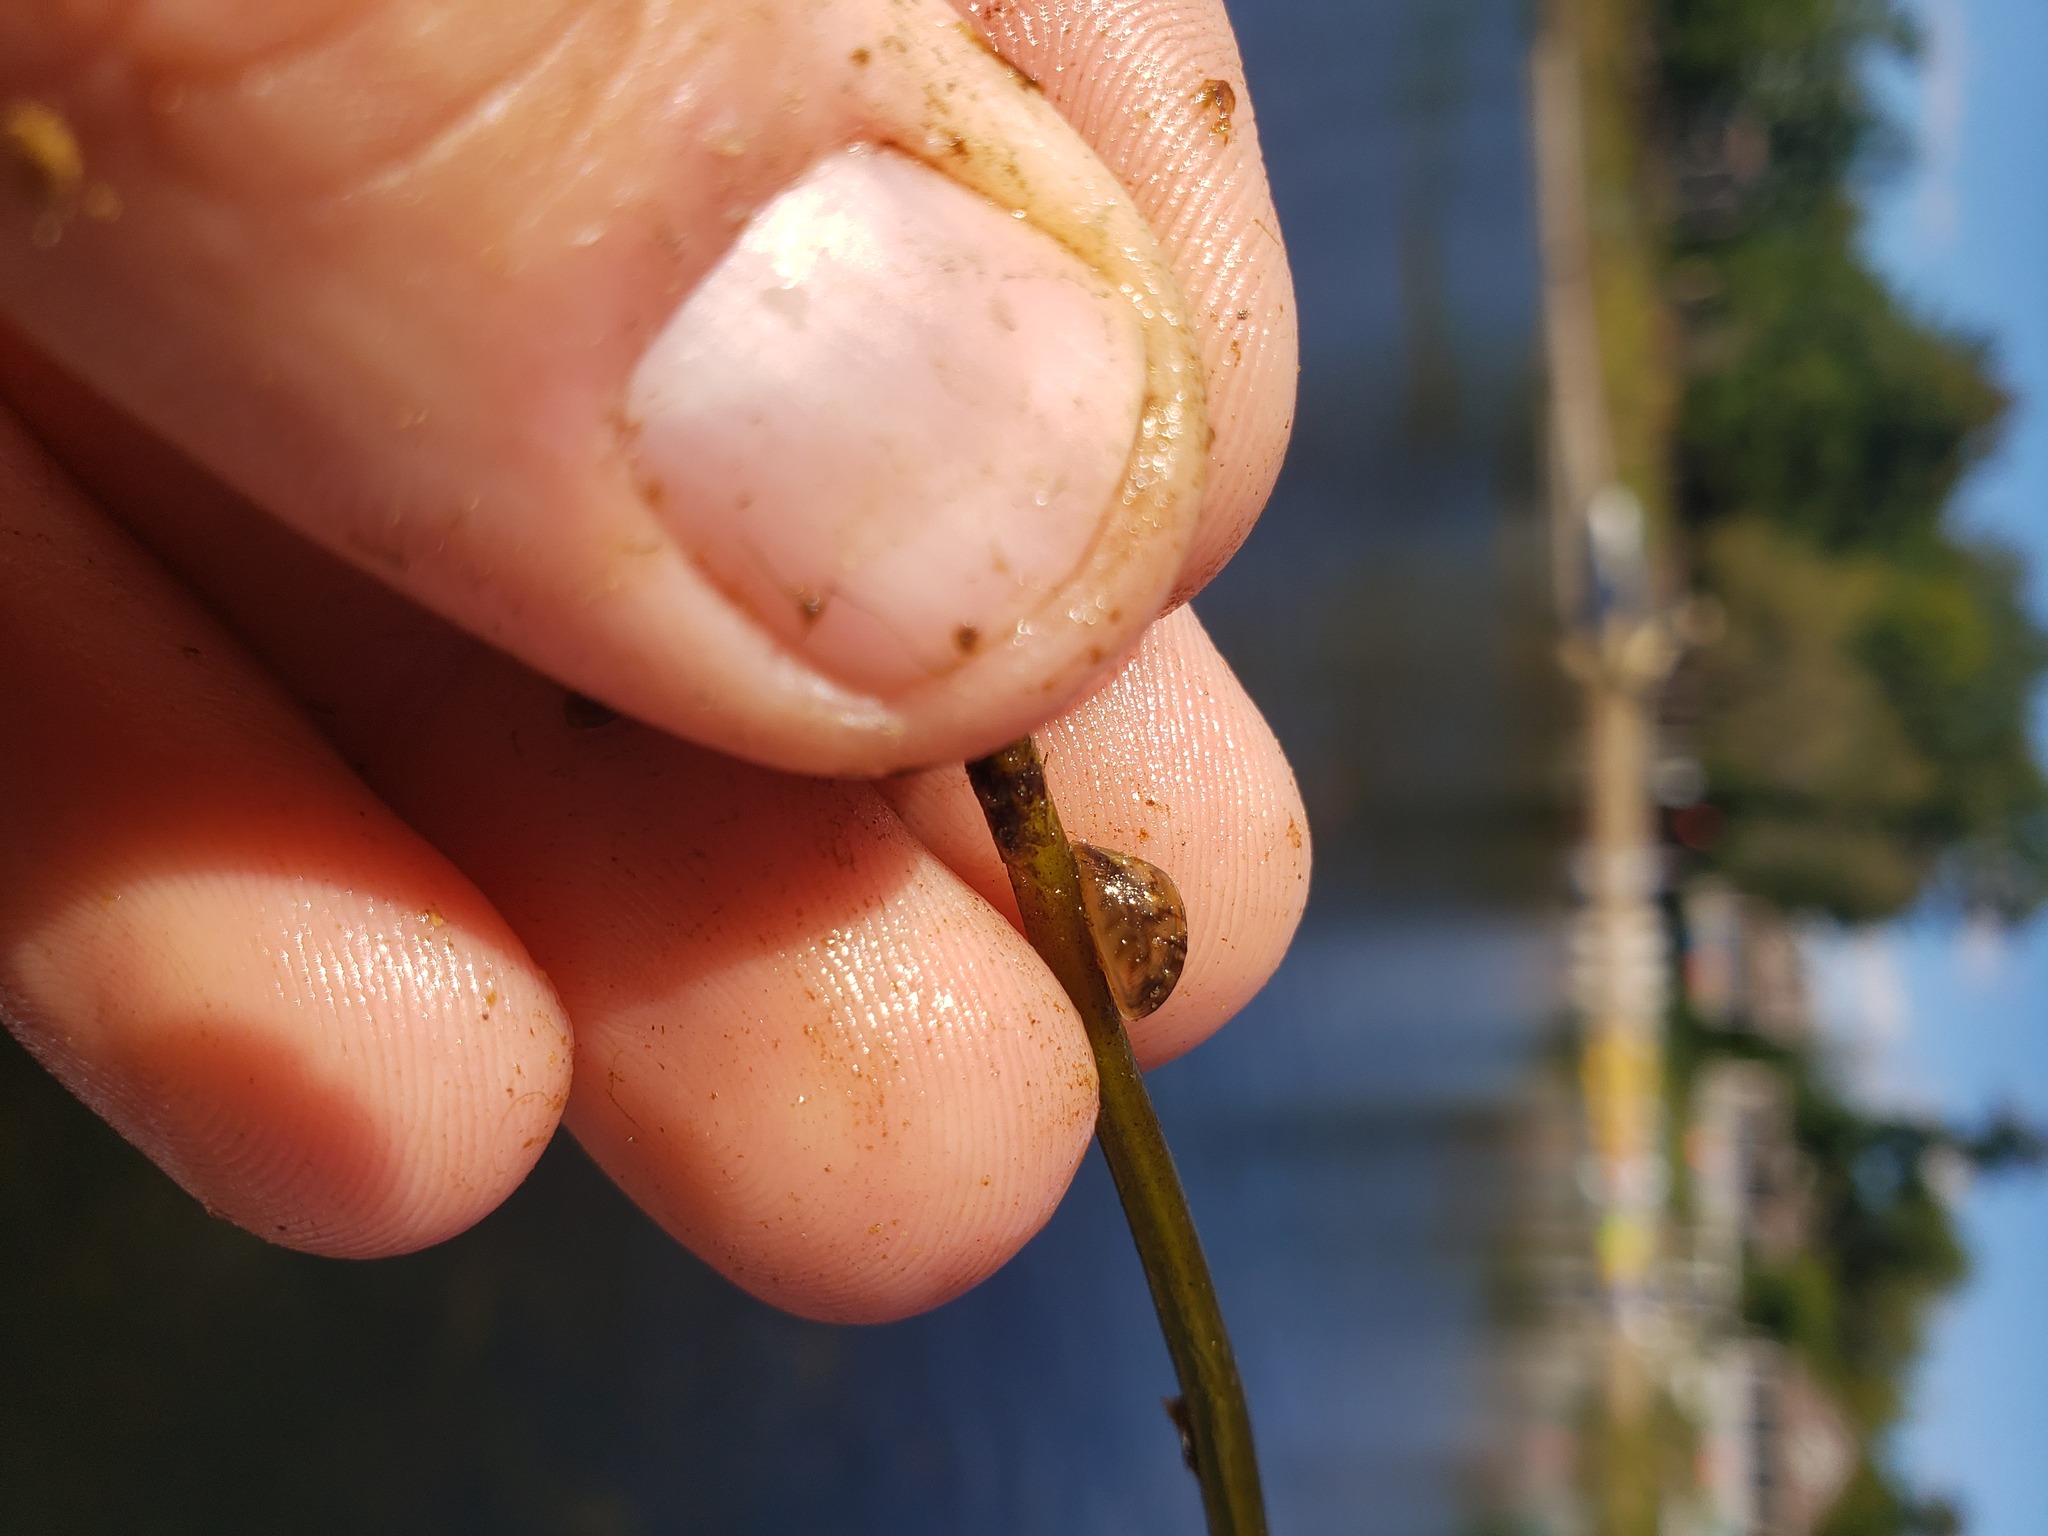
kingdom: Animalia
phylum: Mollusca
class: Bivalvia
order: Myida
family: Dreissenidae
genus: Dreissena
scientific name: Dreissena polymorpha
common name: Zebra mussel
